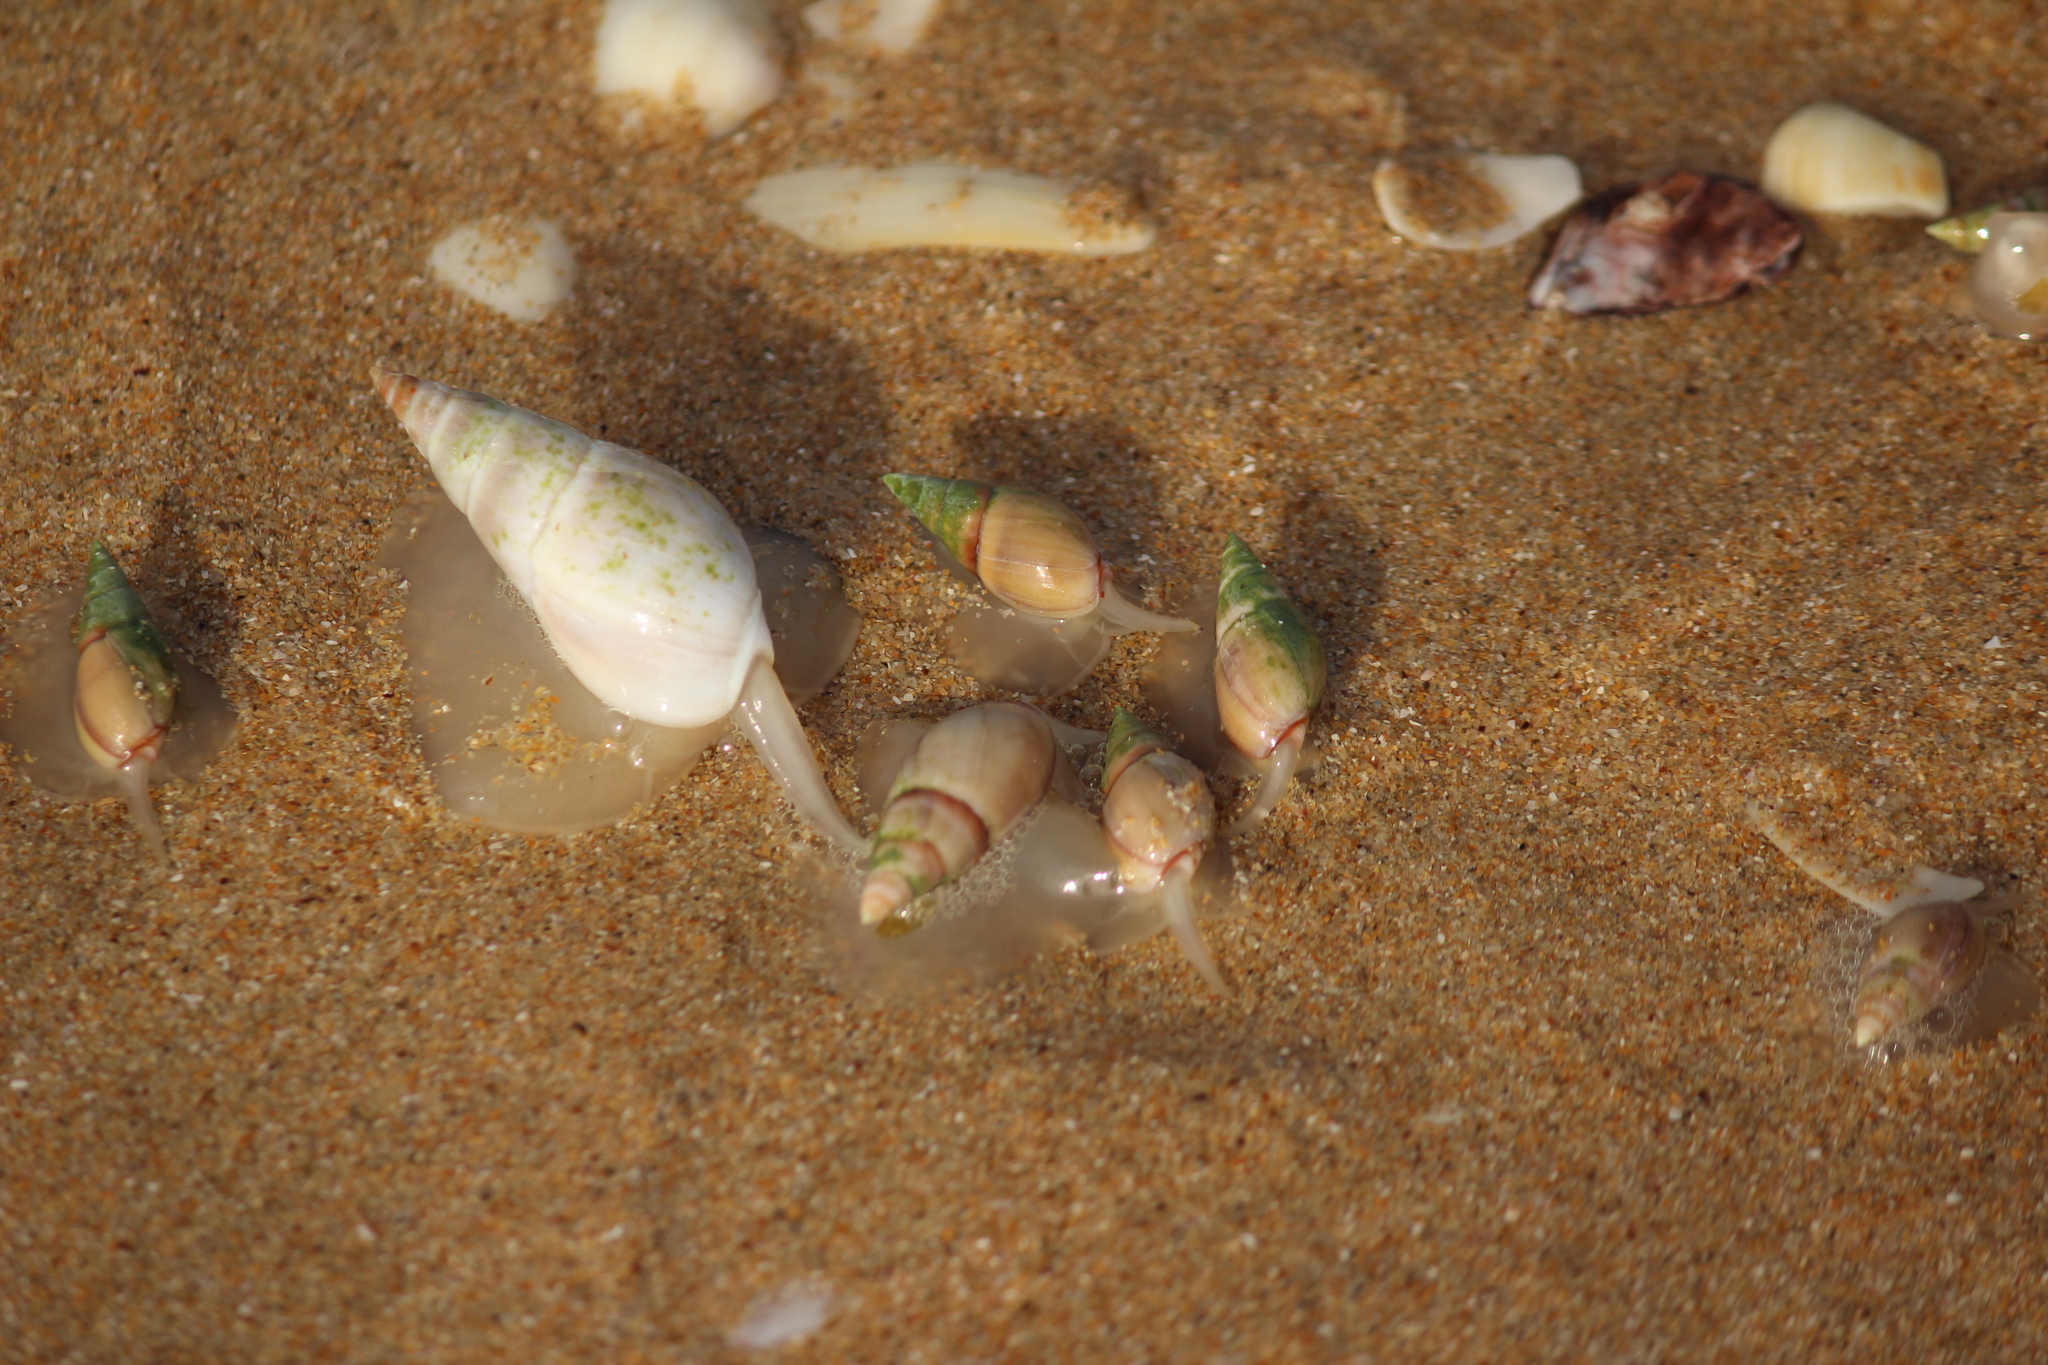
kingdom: Animalia
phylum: Mollusca
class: Gastropoda
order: Neogastropoda
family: Nassariidae
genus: Bullia
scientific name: Bullia rhodostoma
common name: Smooth plough shell
